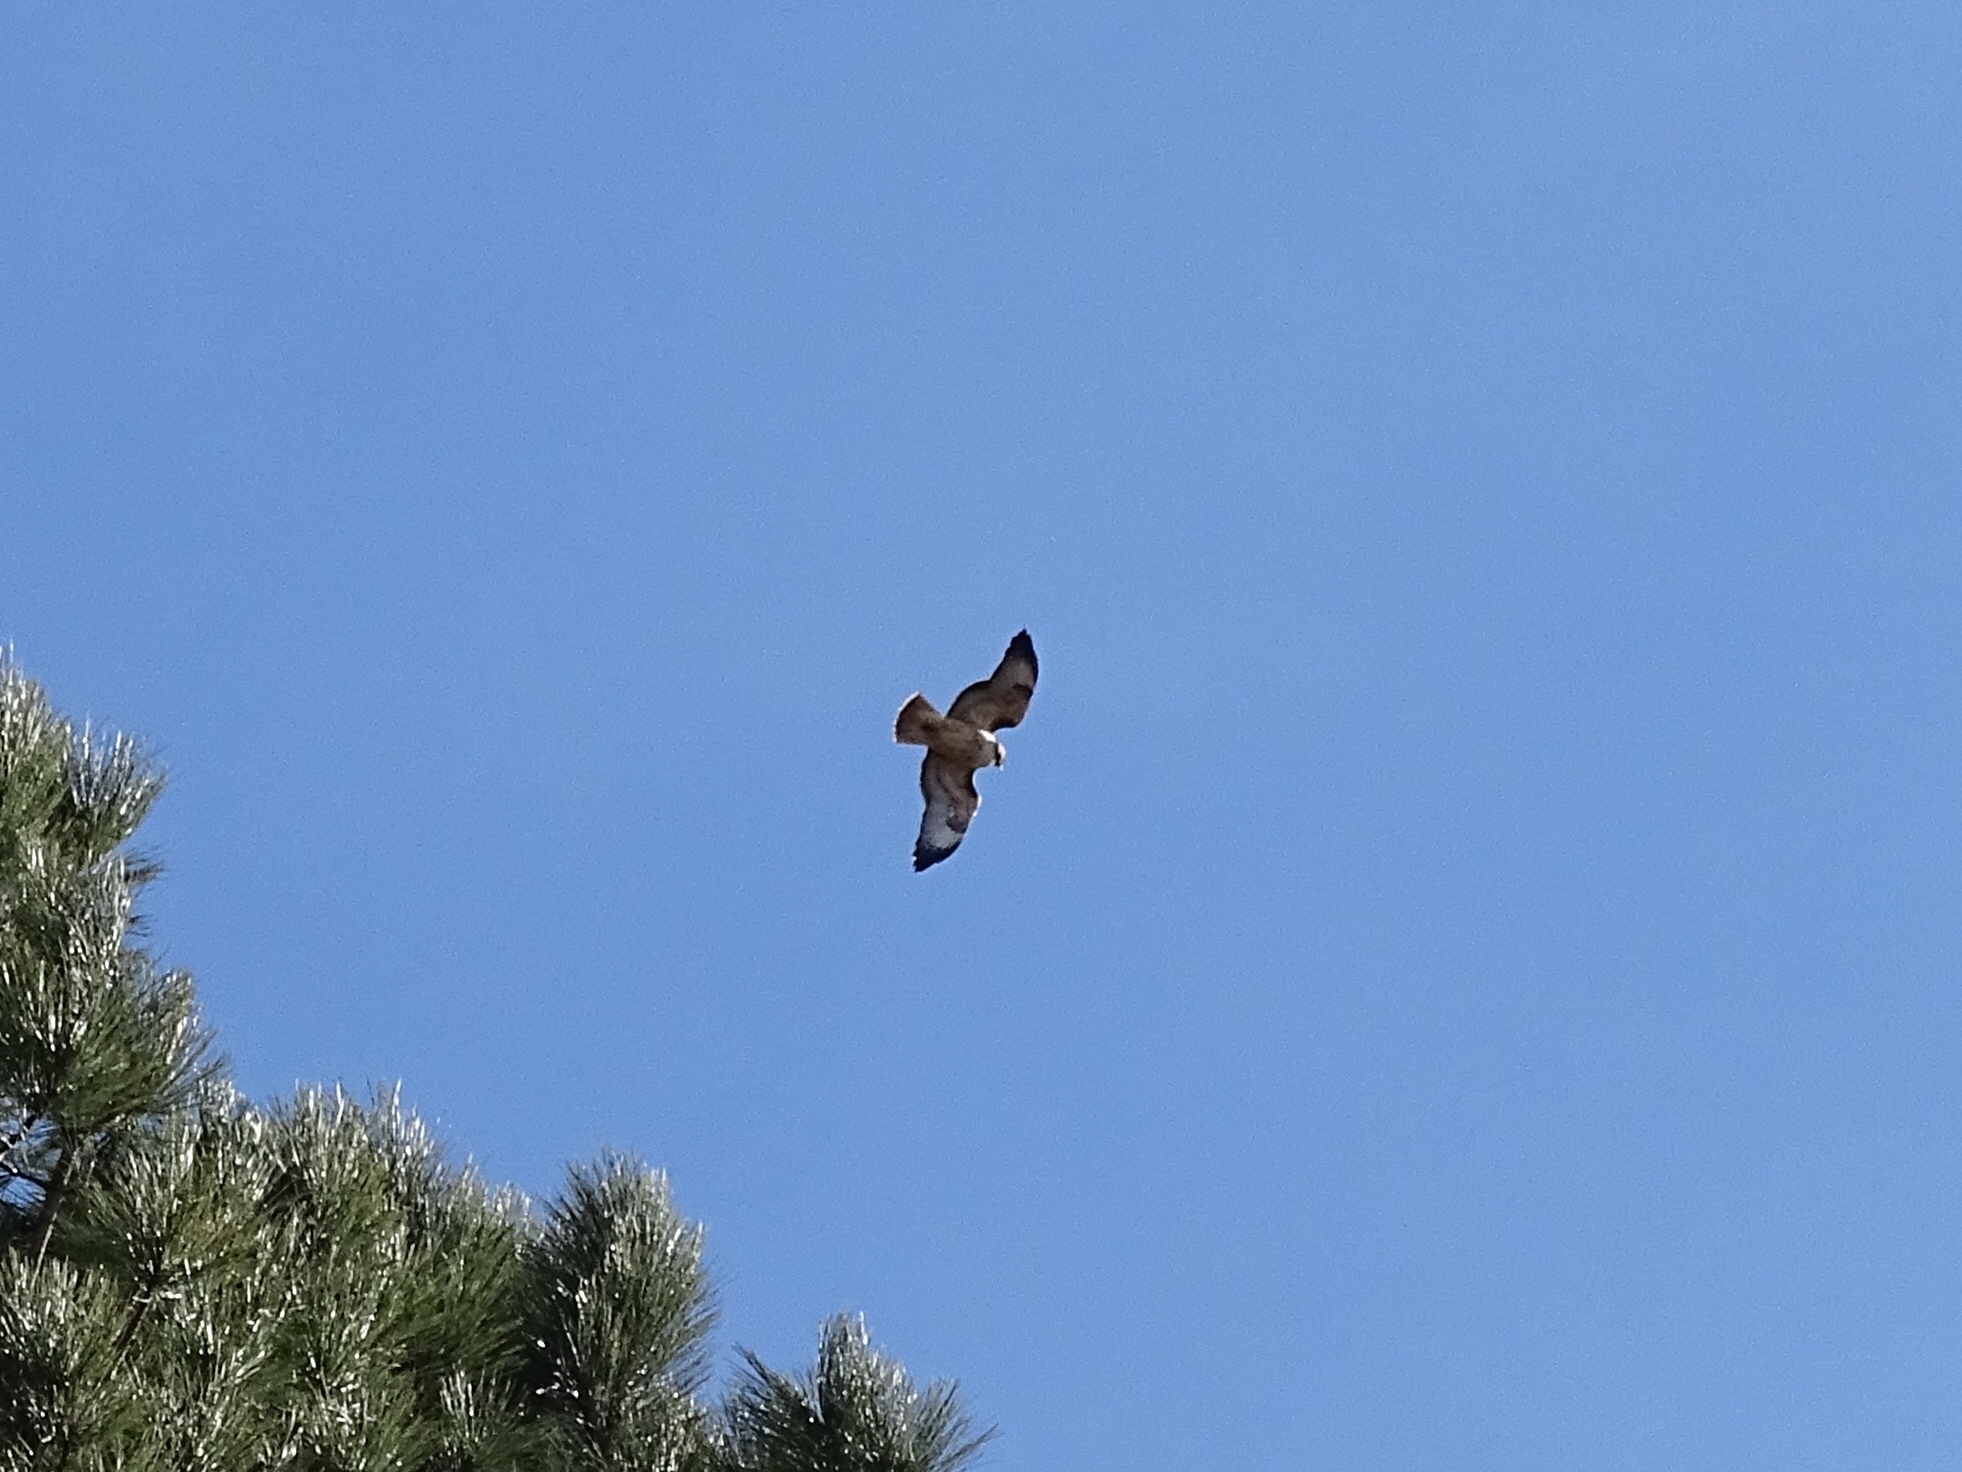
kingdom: Animalia
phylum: Chordata
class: Aves
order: Accipitriformes
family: Accipitridae
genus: Buteo
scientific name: Buteo jamaicensis
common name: Red-tailed hawk
